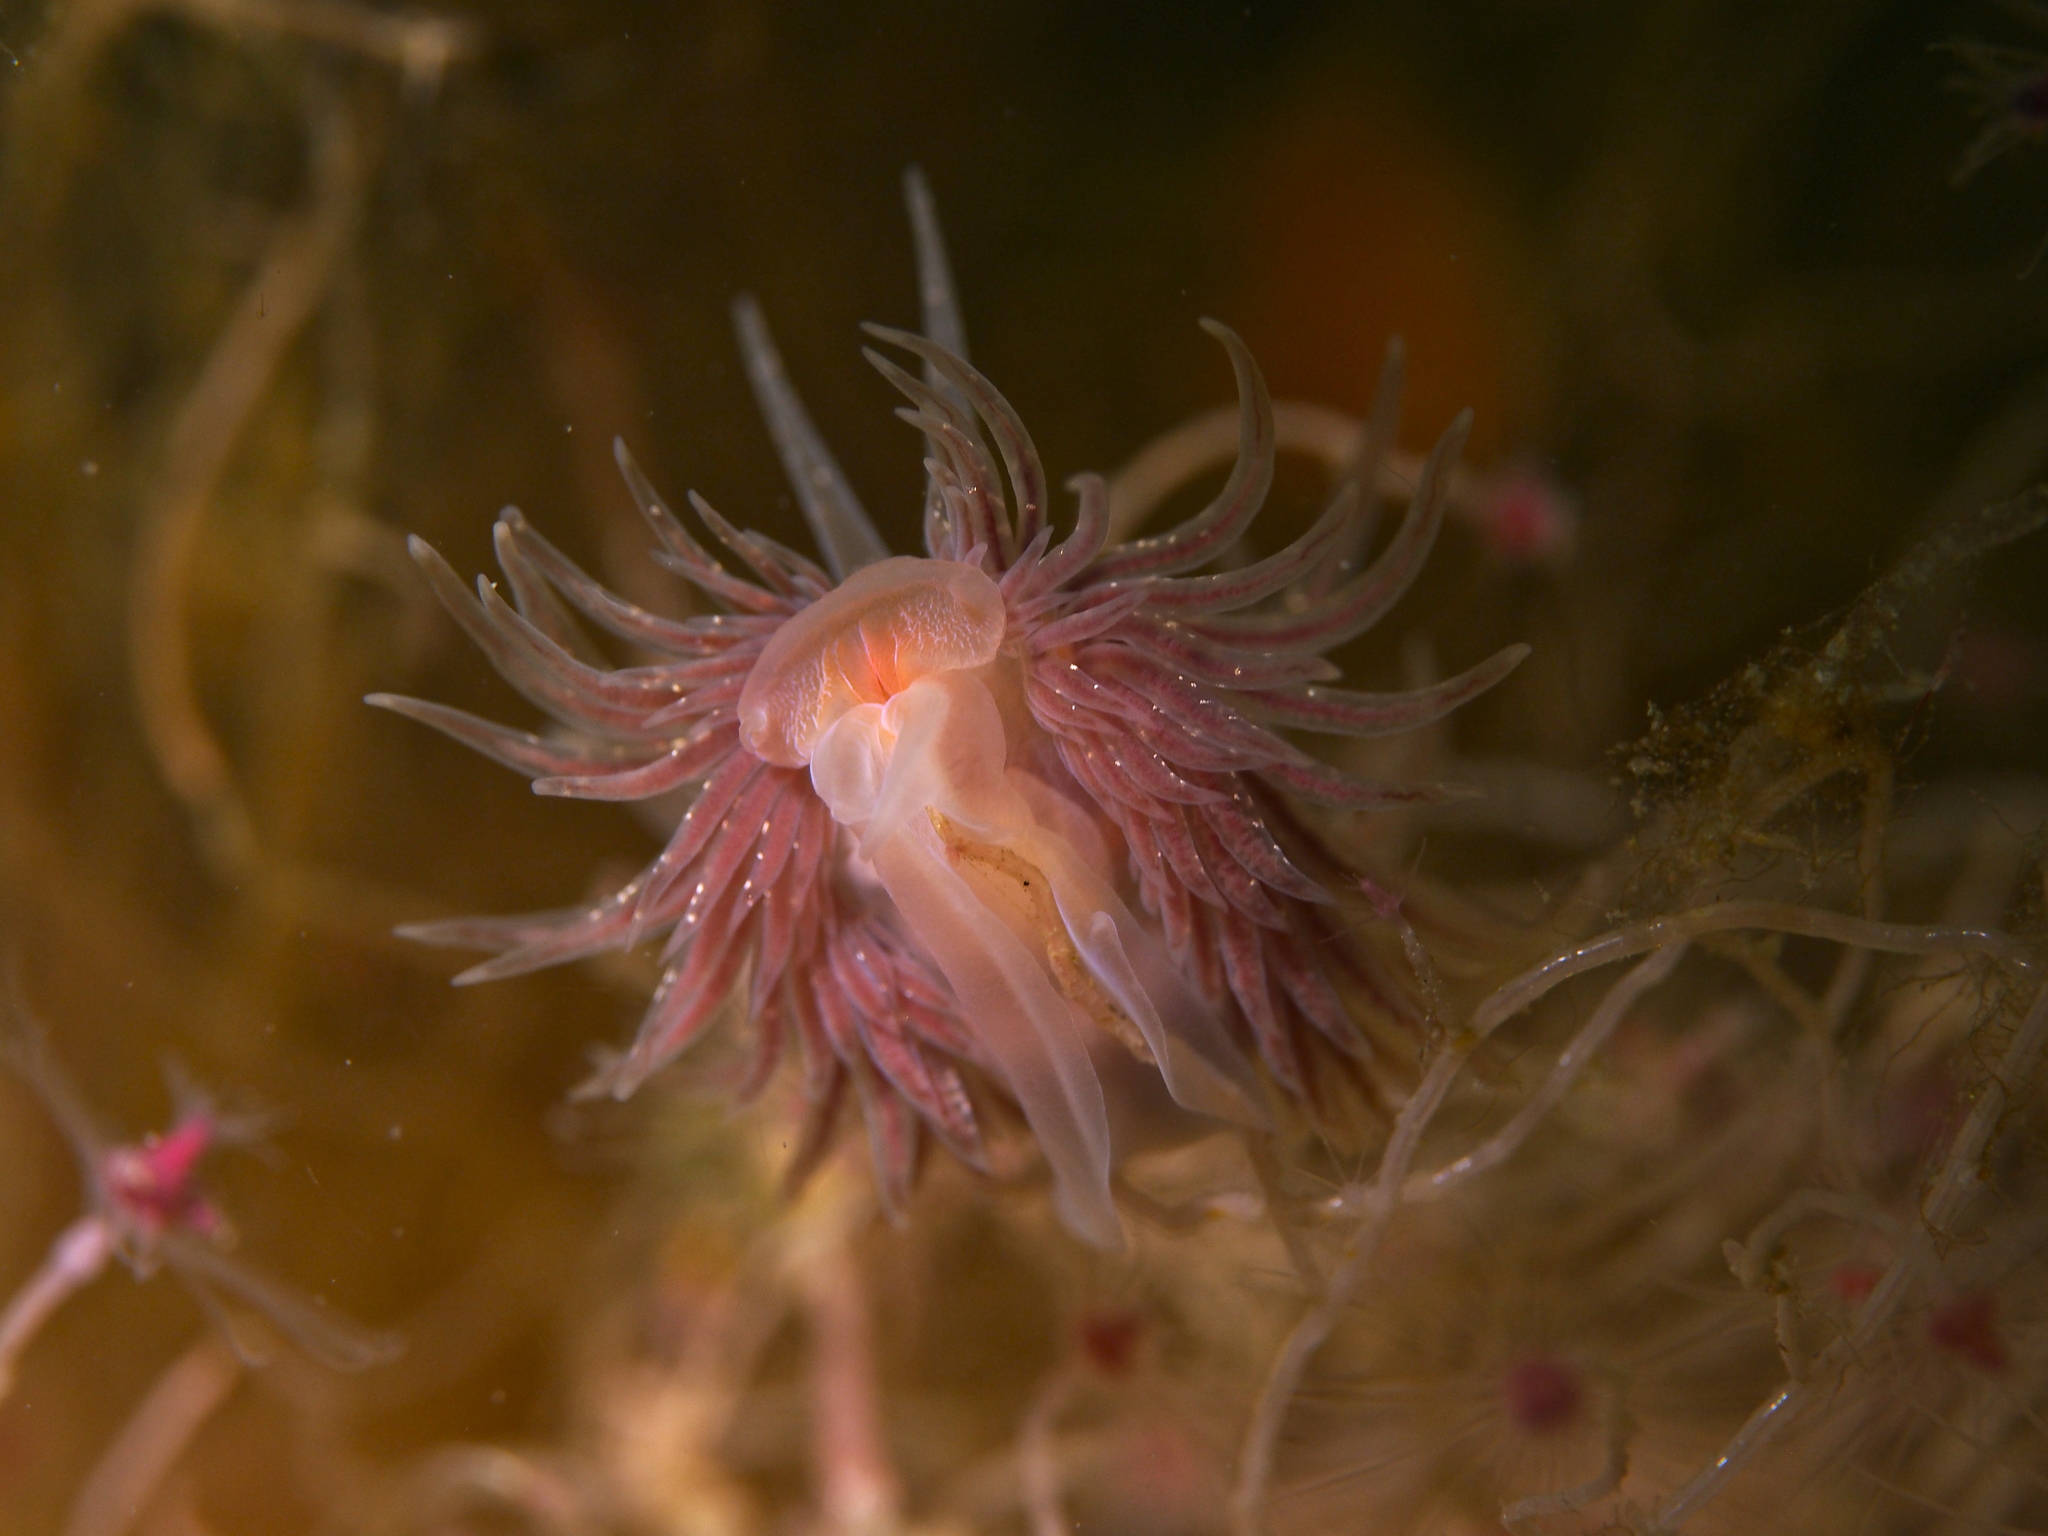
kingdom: Animalia
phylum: Mollusca
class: Gastropoda
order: Nudibranchia
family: Cumanotidae
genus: Cumanotus
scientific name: Cumanotus beaumonti
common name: Polyp aeolis
